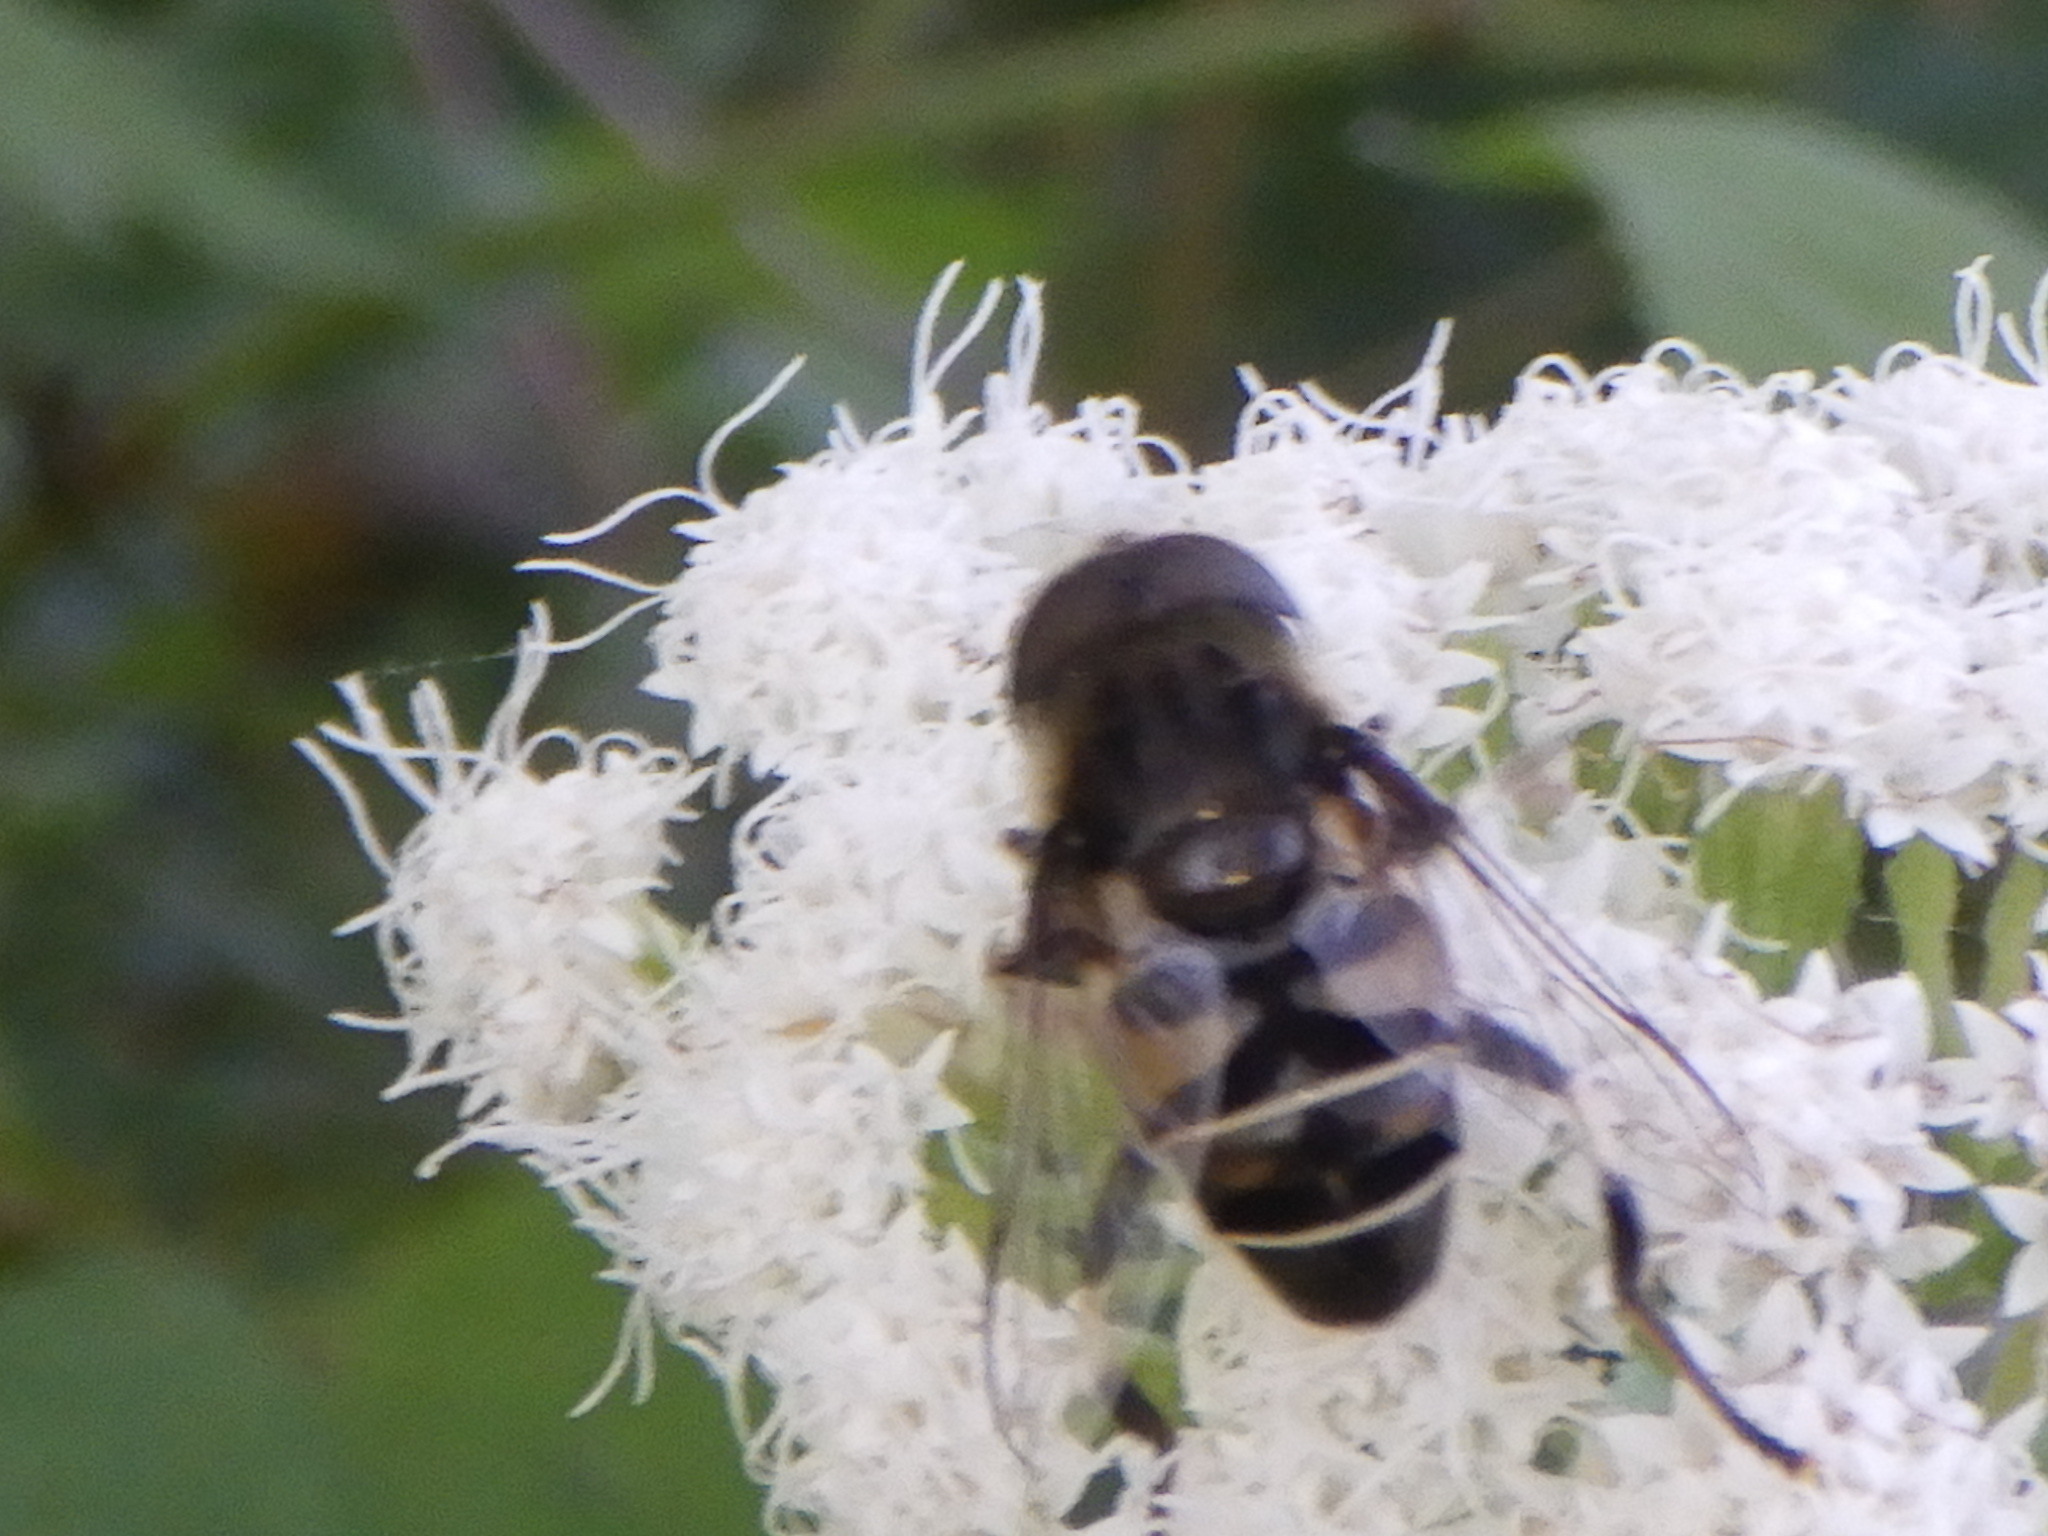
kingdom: Animalia
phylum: Arthropoda
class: Insecta
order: Diptera
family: Syrphidae
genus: Eristalis
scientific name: Eristalis dimidiata
